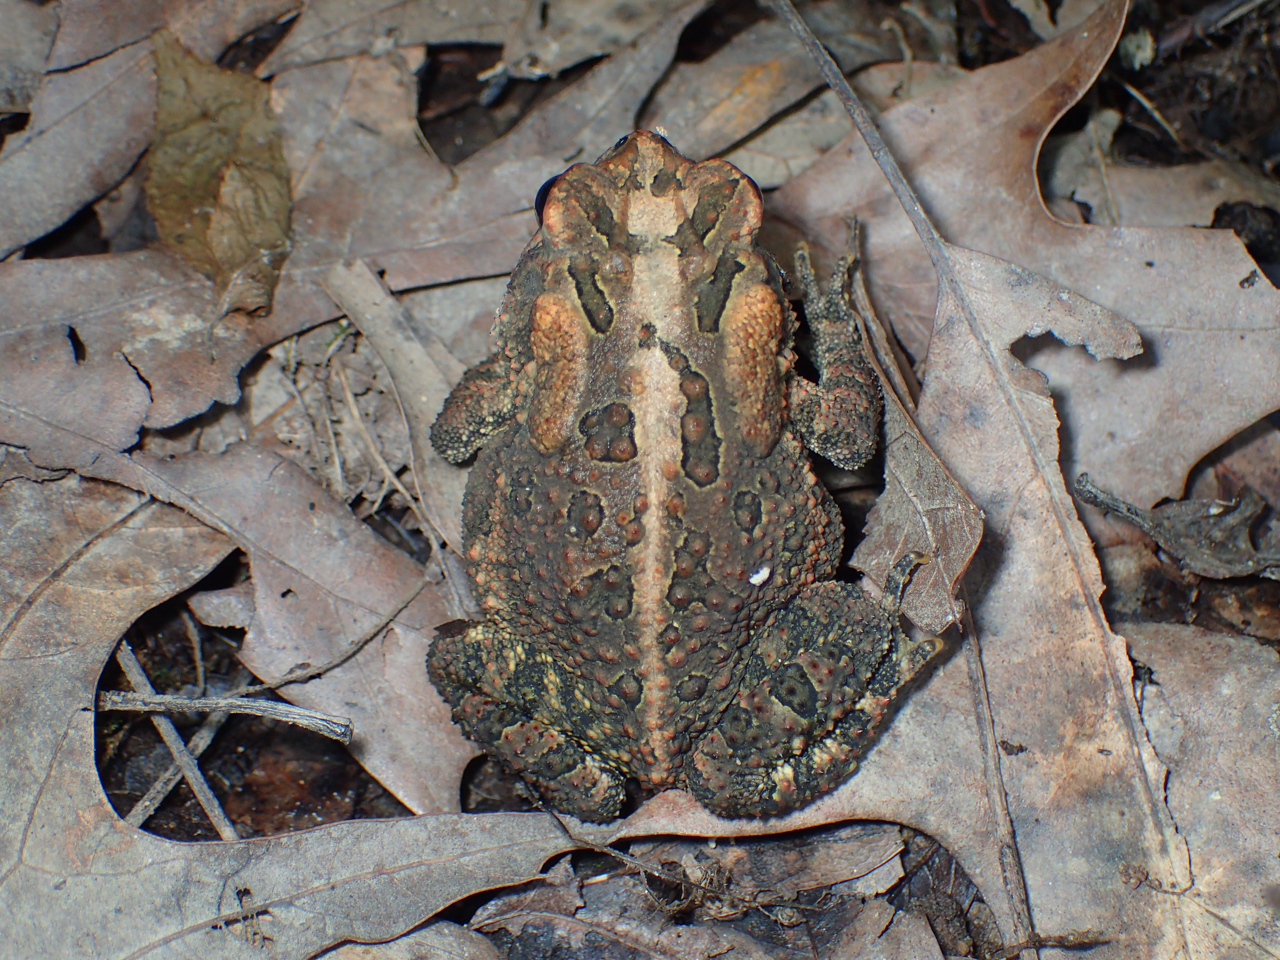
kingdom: Animalia
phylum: Arthropoda
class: Insecta
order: Coleoptera
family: Passalidae
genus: Odontotaenius
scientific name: Odontotaenius disjunctus
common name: Patent leather beetle
